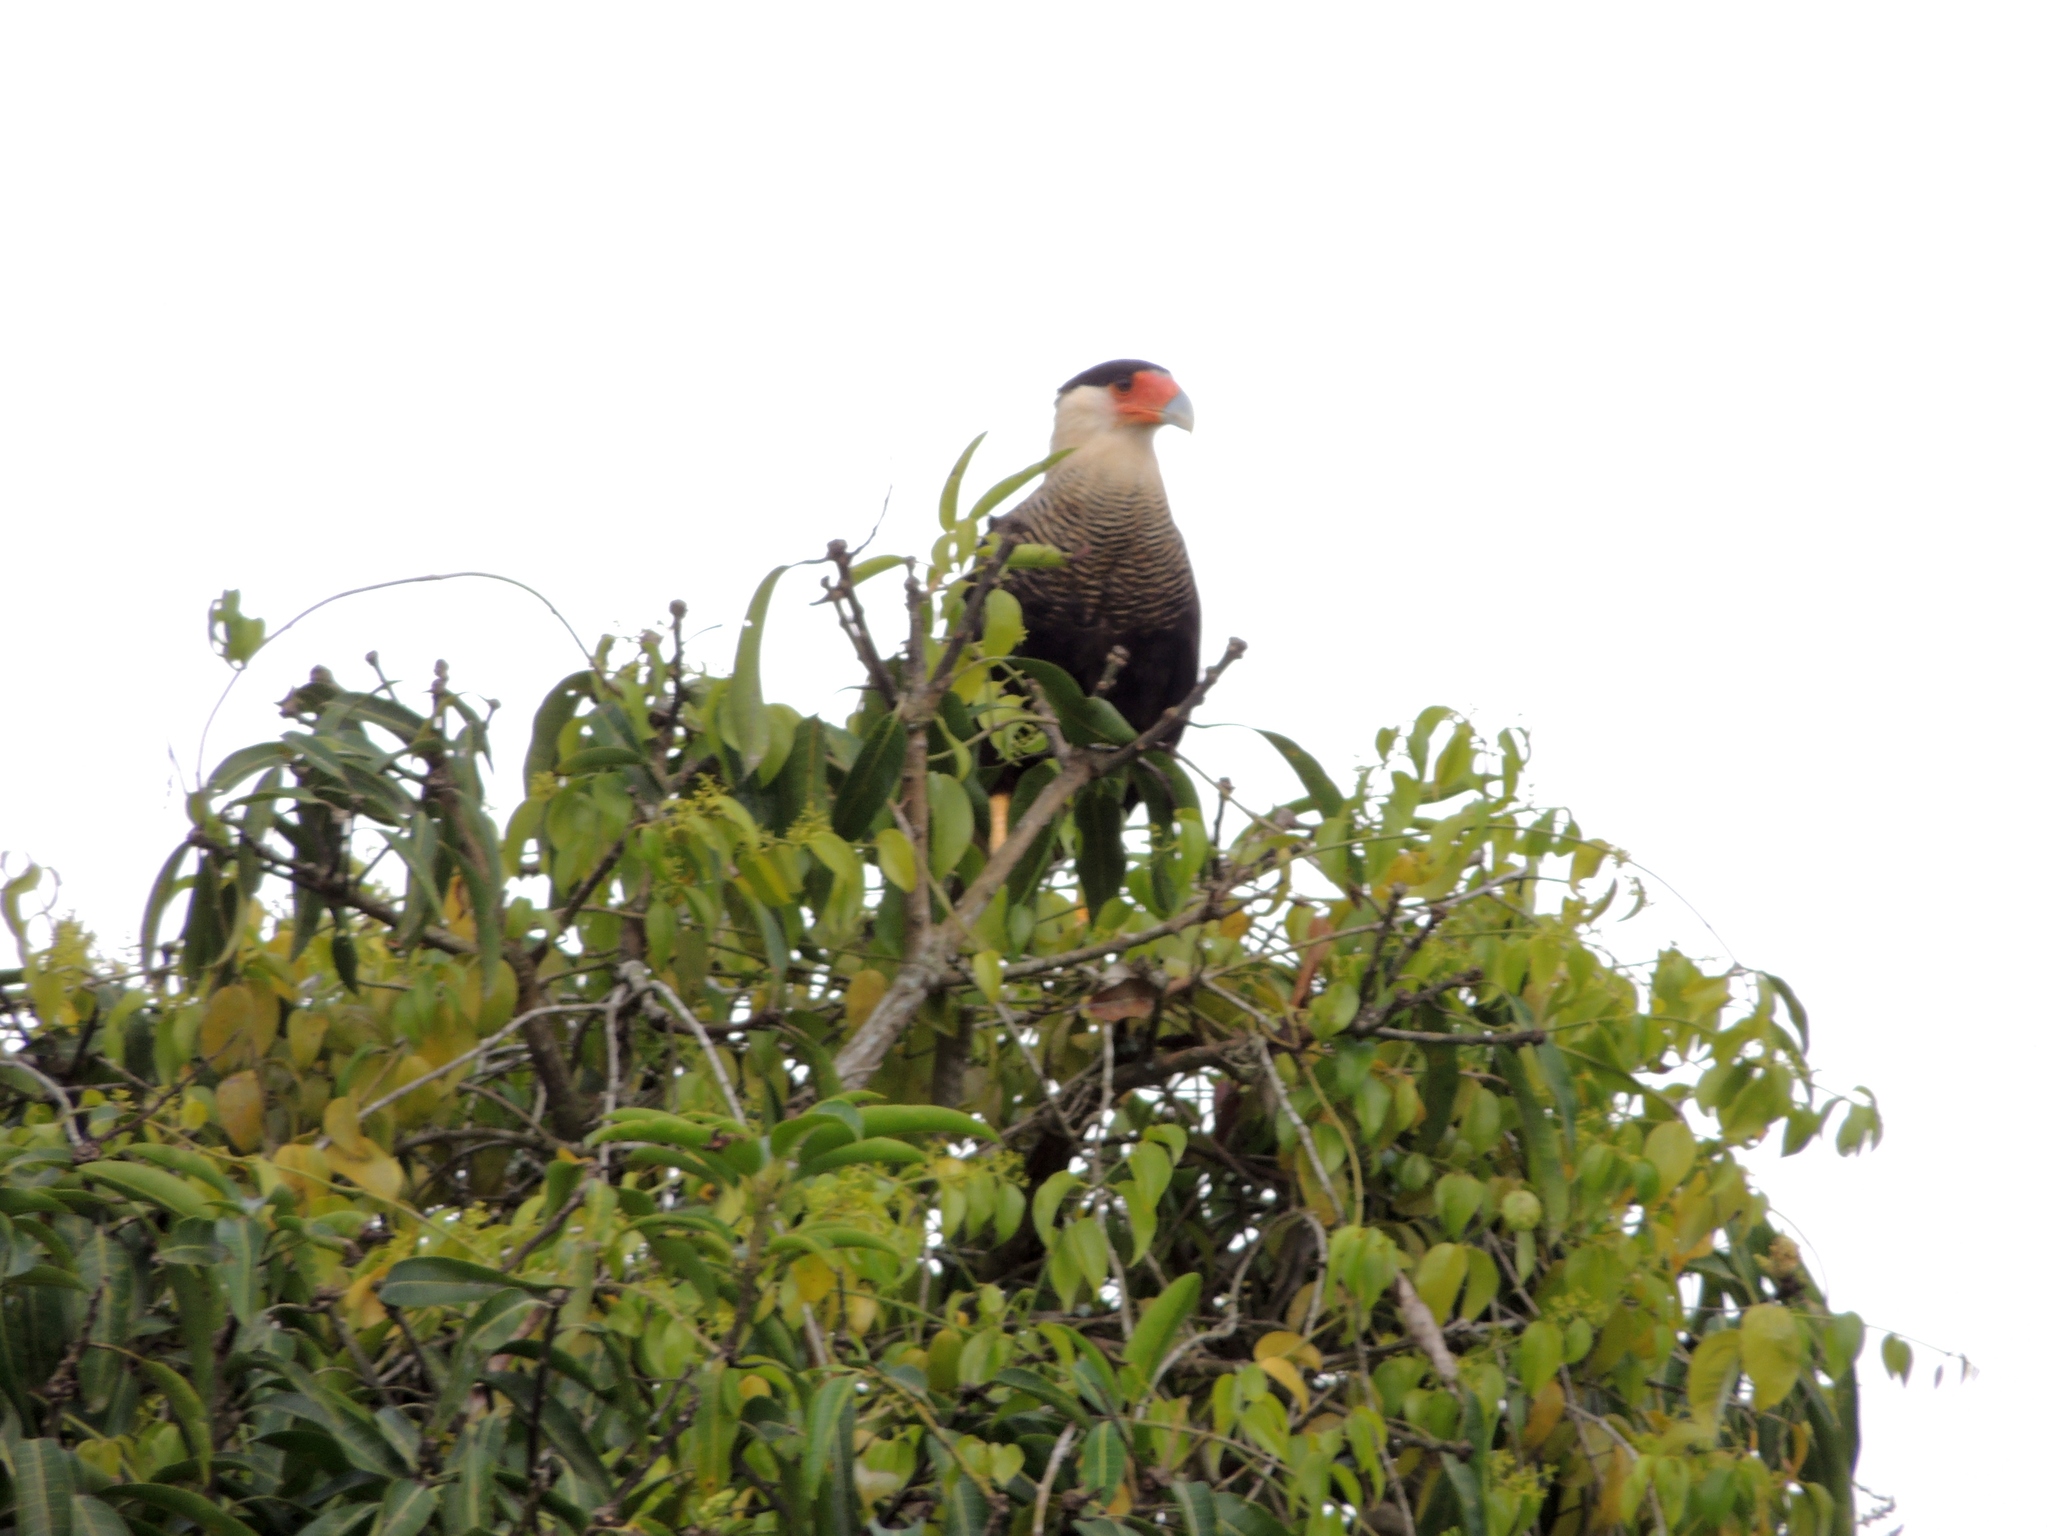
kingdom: Animalia
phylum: Chordata
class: Aves
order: Falconiformes
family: Falconidae
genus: Caracara
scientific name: Caracara plancus
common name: Southern caracara
